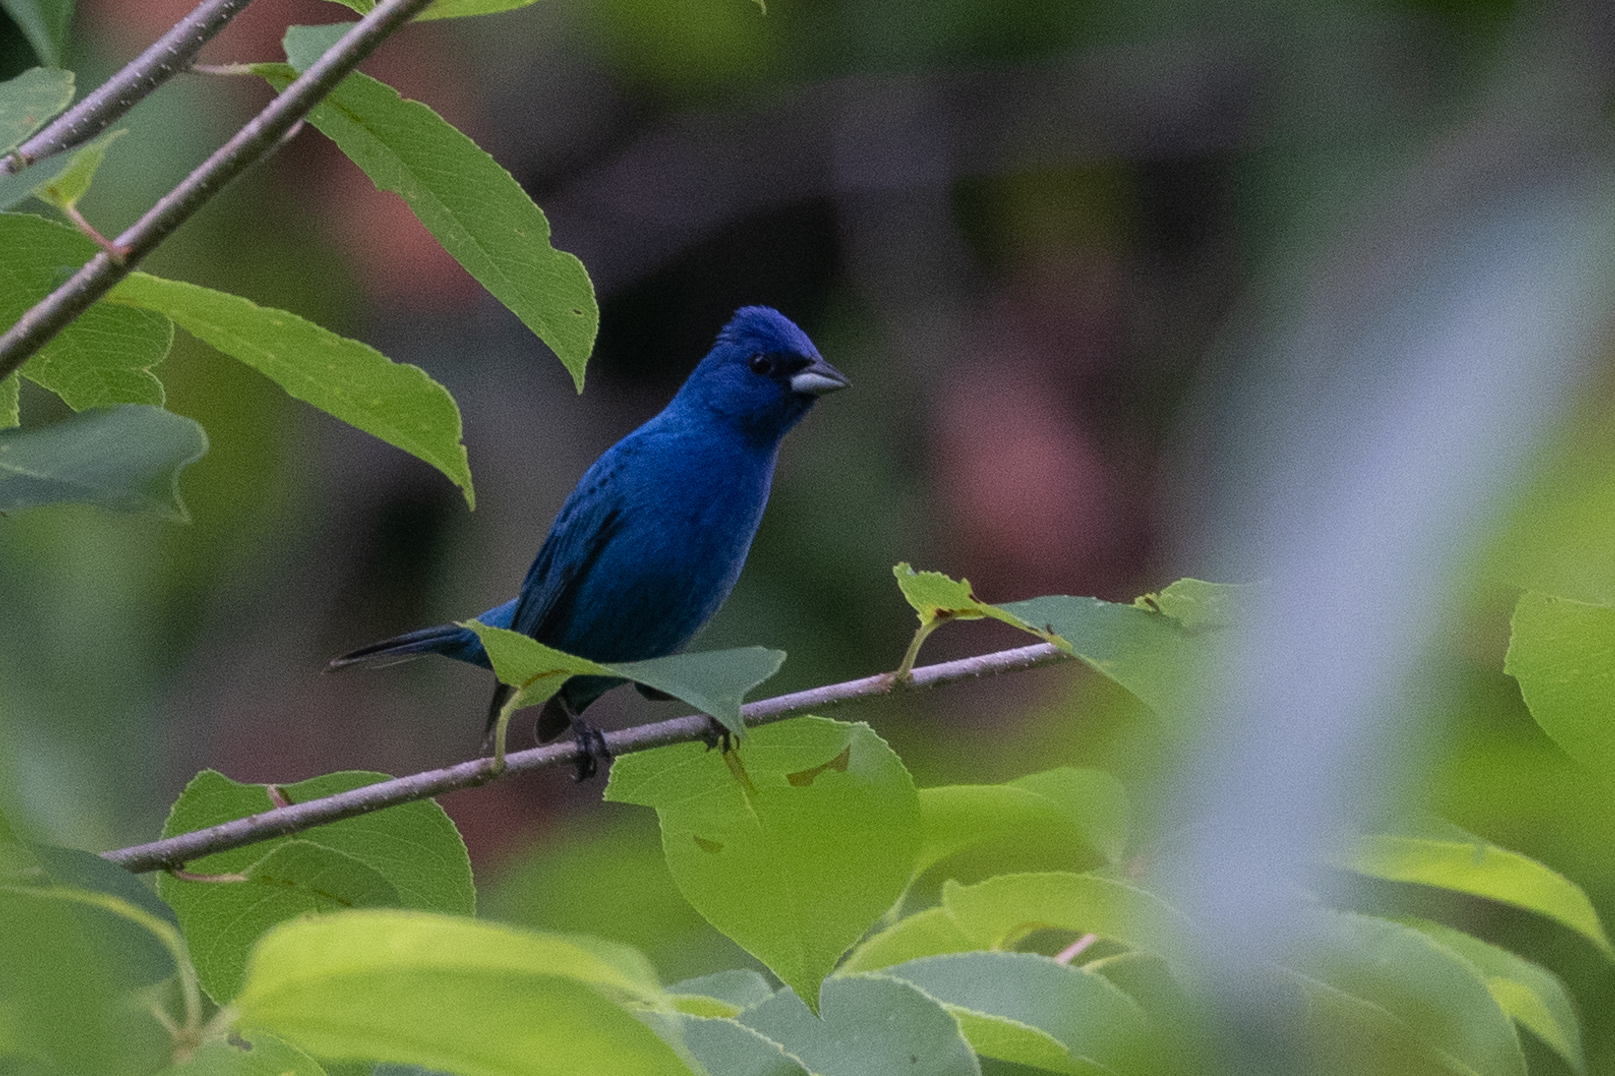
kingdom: Animalia
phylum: Chordata
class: Aves
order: Passeriformes
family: Cardinalidae
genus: Passerina
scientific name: Passerina cyanea
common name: Indigo bunting
